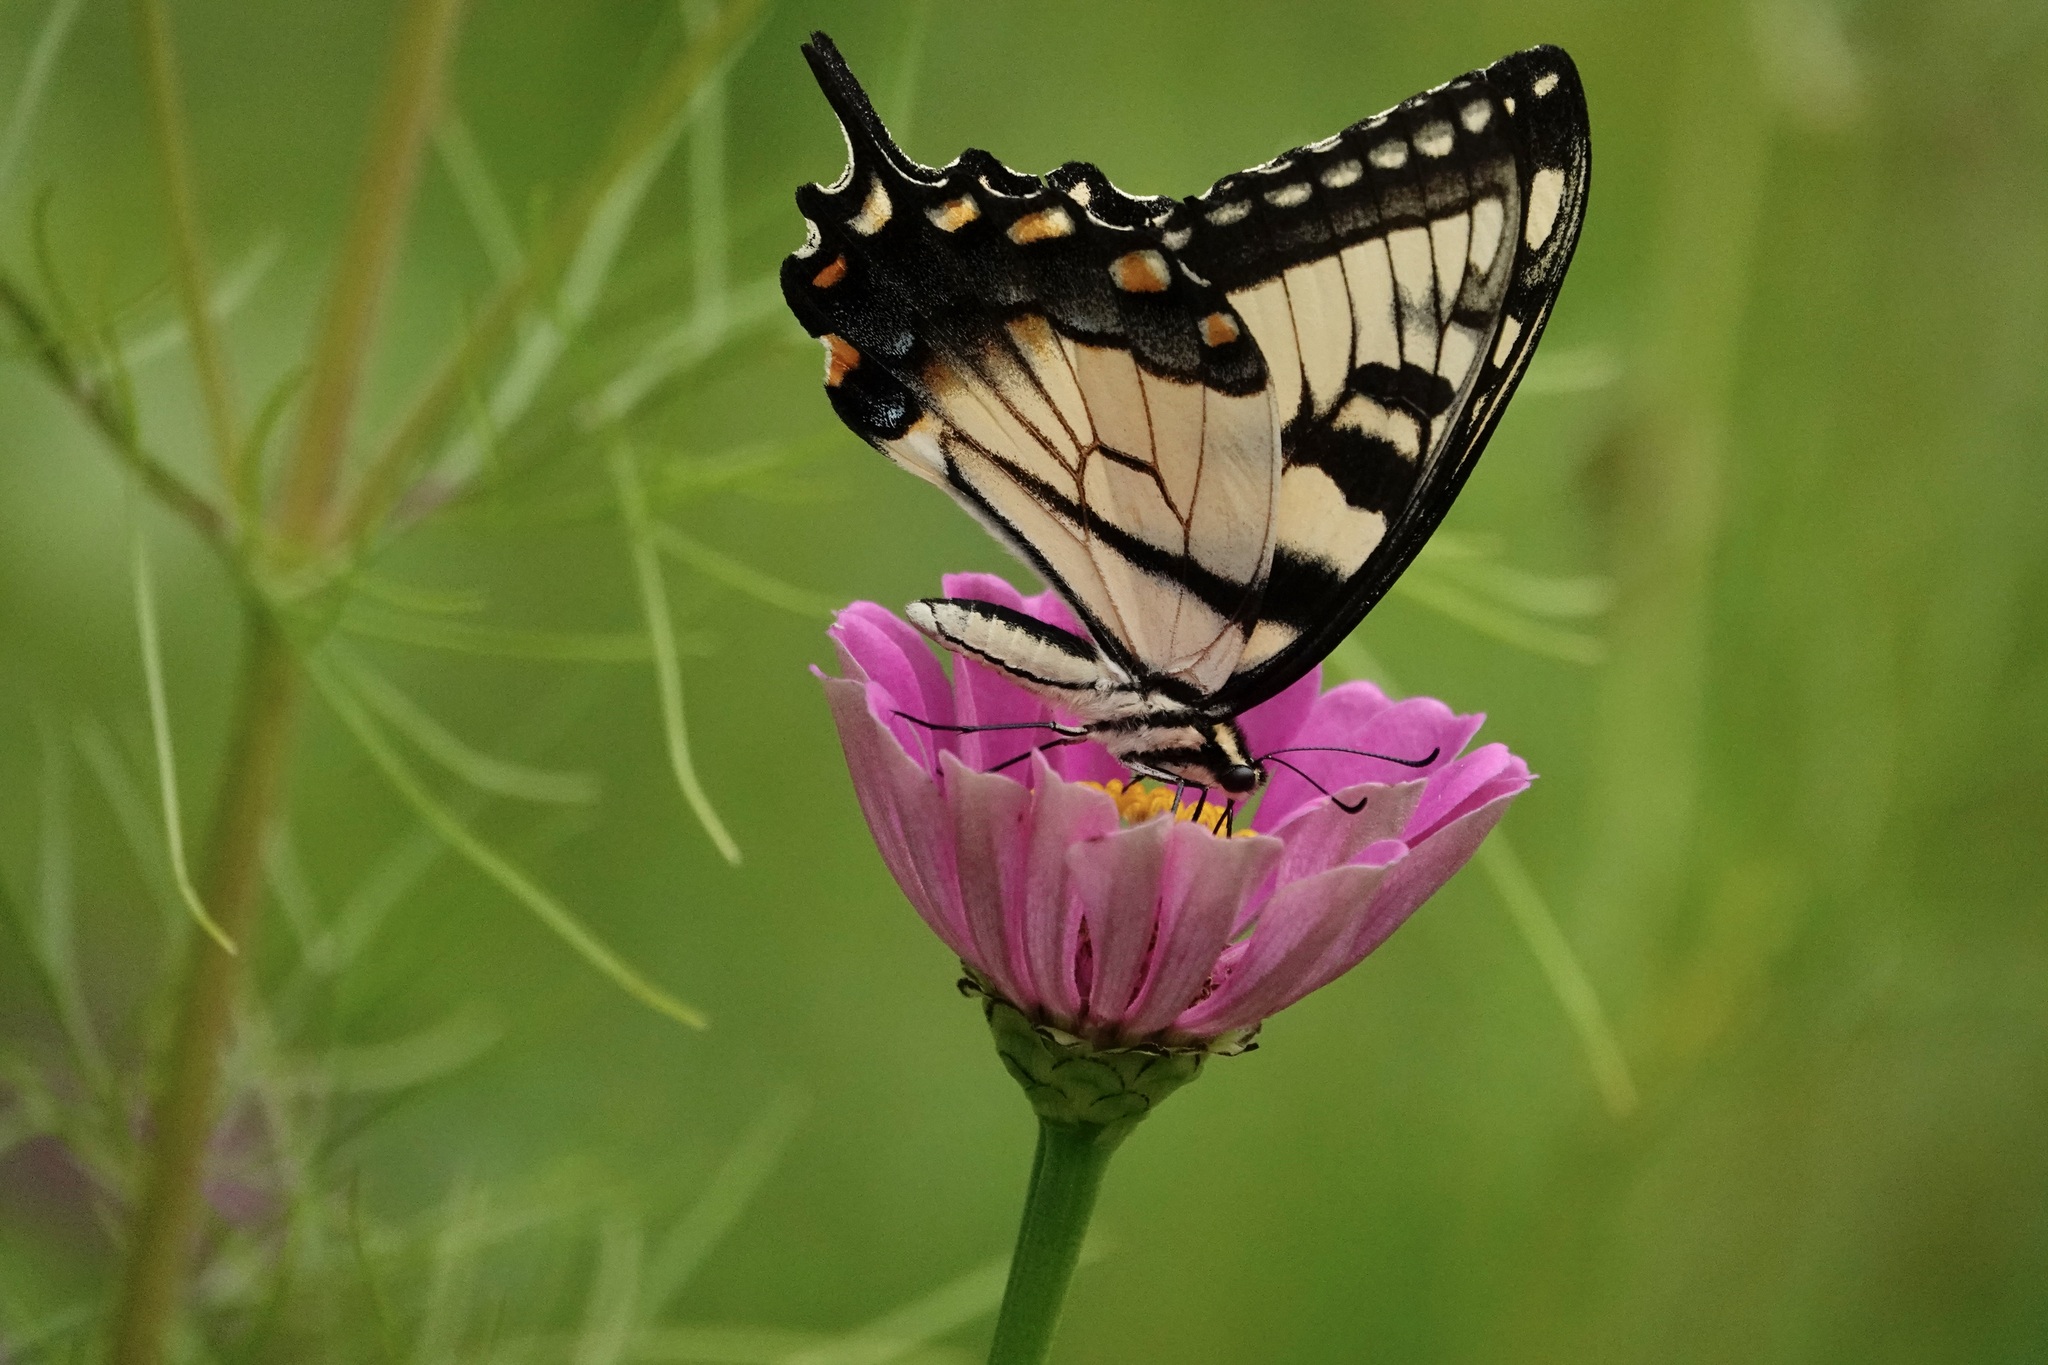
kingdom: Animalia
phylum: Arthropoda
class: Insecta
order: Lepidoptera
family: Papilionidae
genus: Papilio
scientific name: Papilio glaucus
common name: Tiger swallowtail
